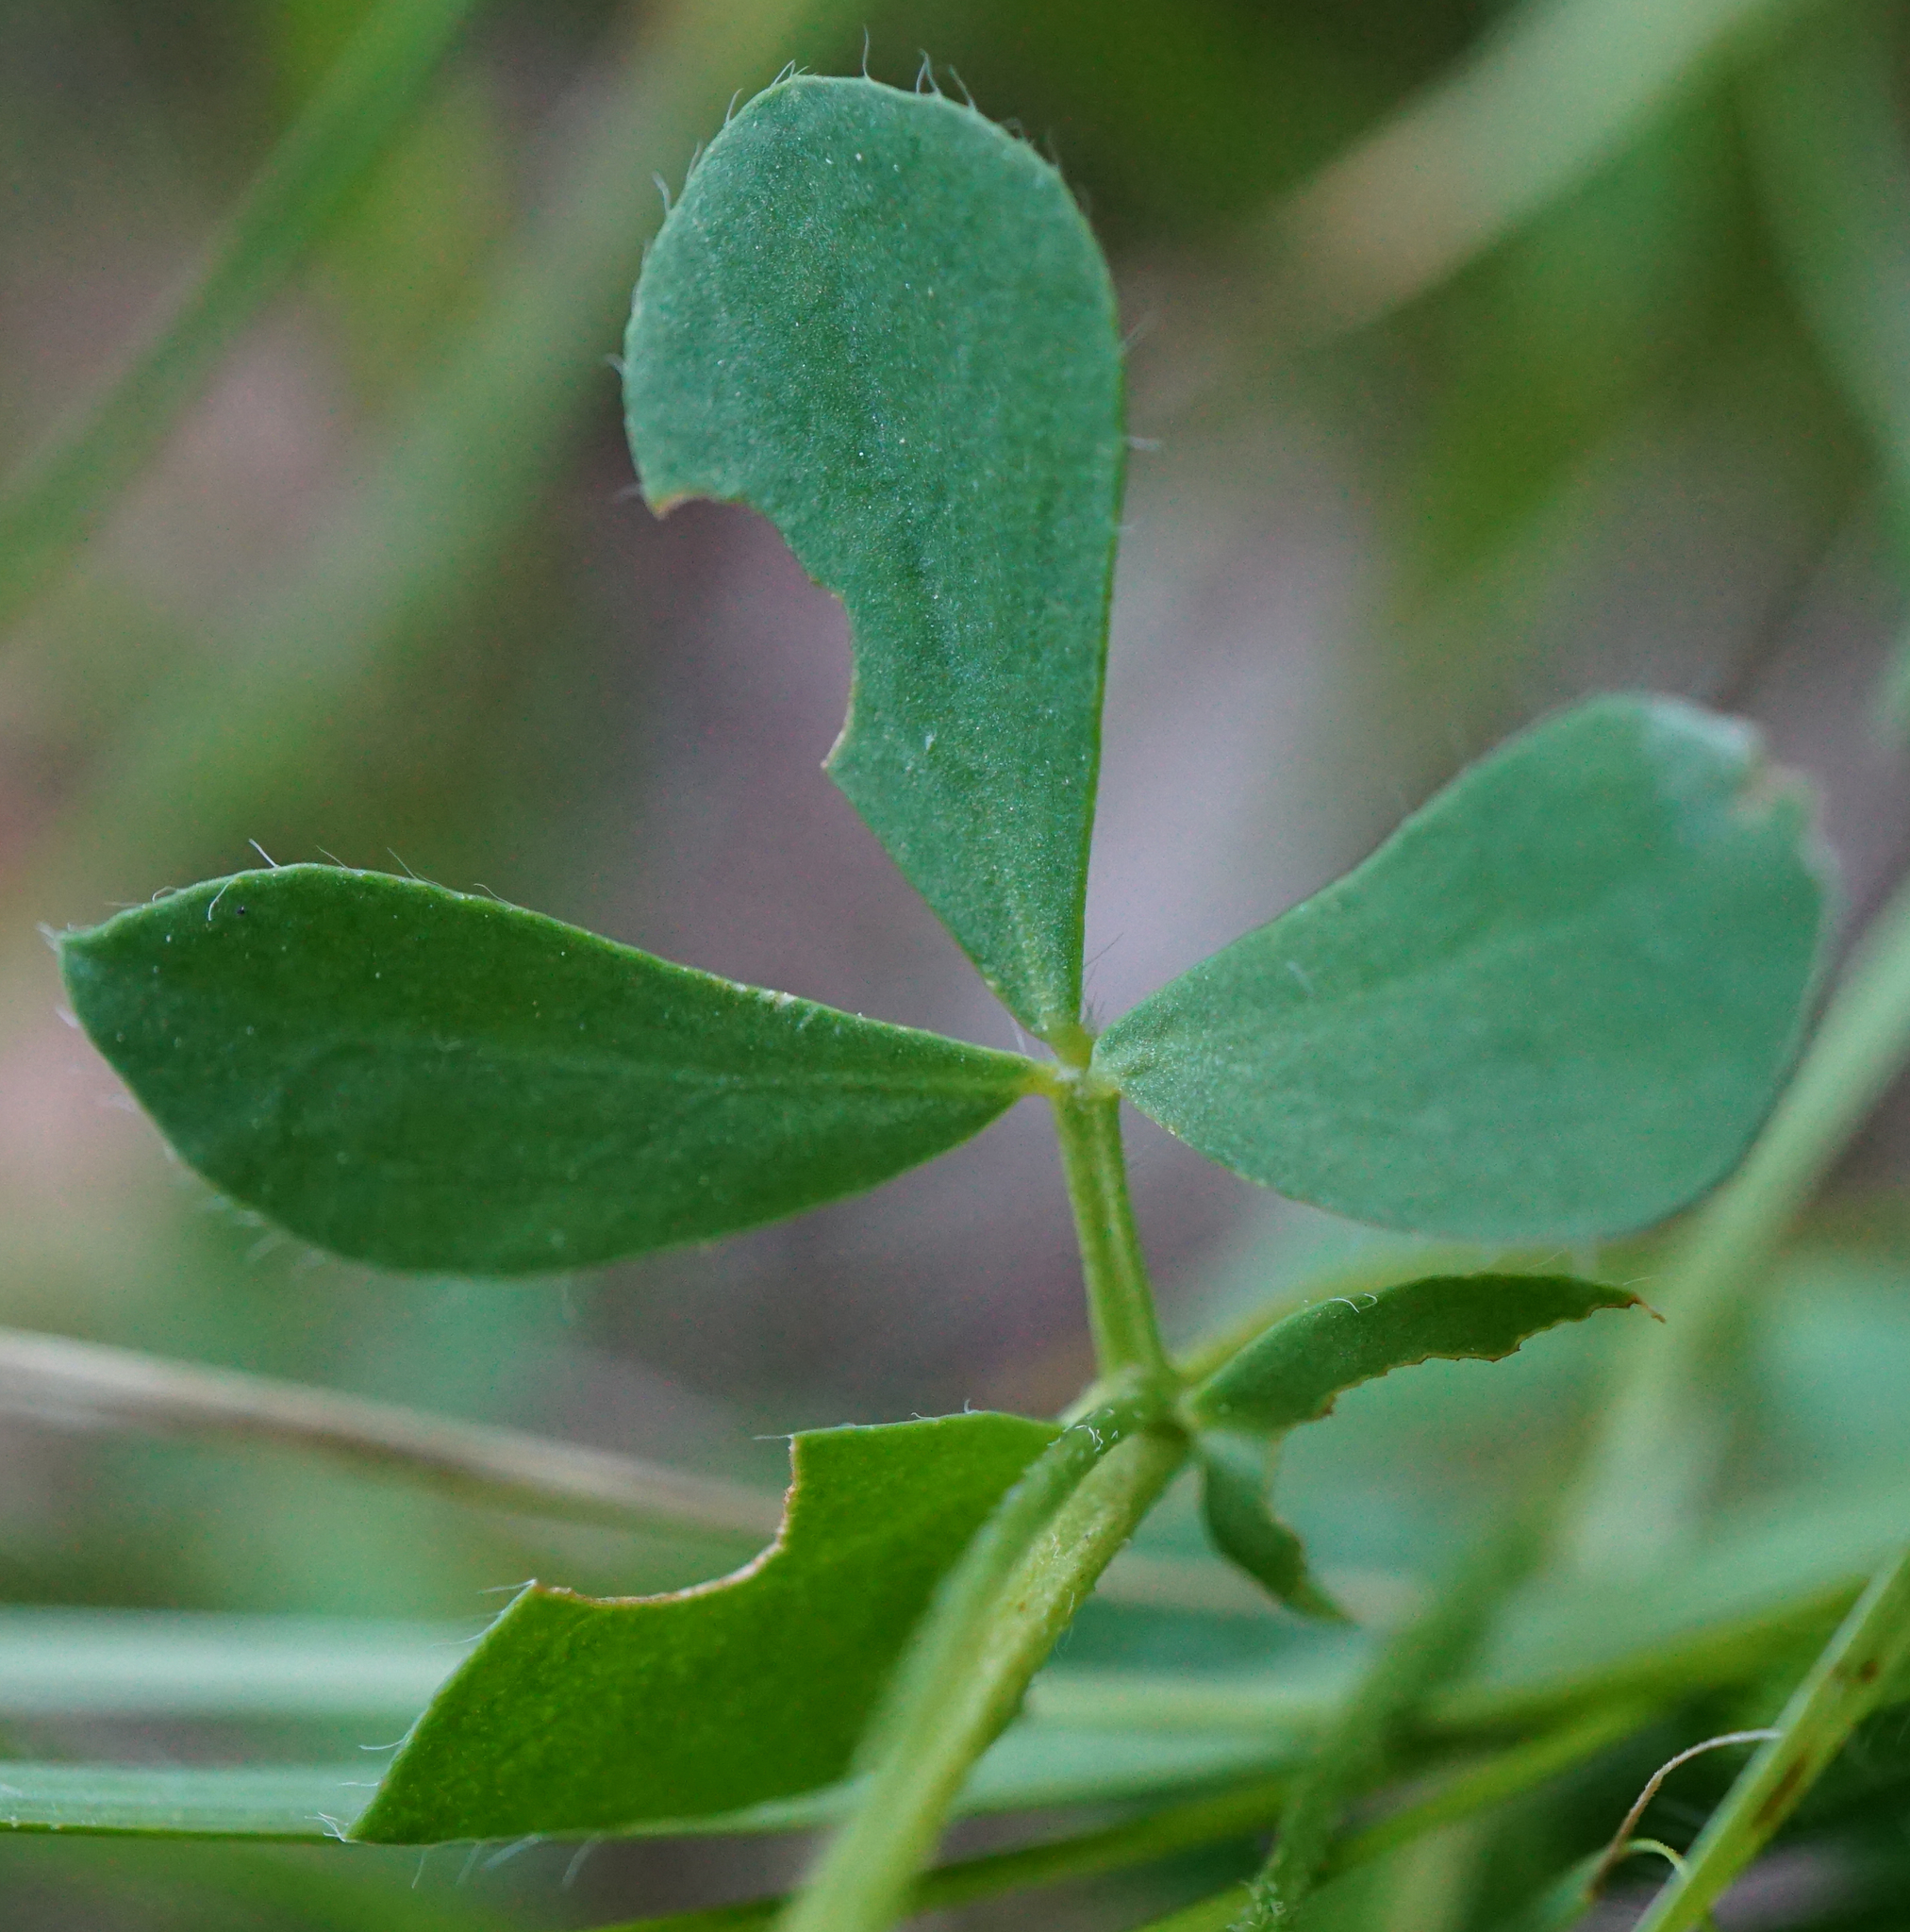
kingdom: Plantae
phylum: Tracheophyta
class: Magnoliopsida
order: Fabales
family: Fabaceae
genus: Lotus
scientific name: Lotus corniculatus
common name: Common bird's-foot-trefoil
